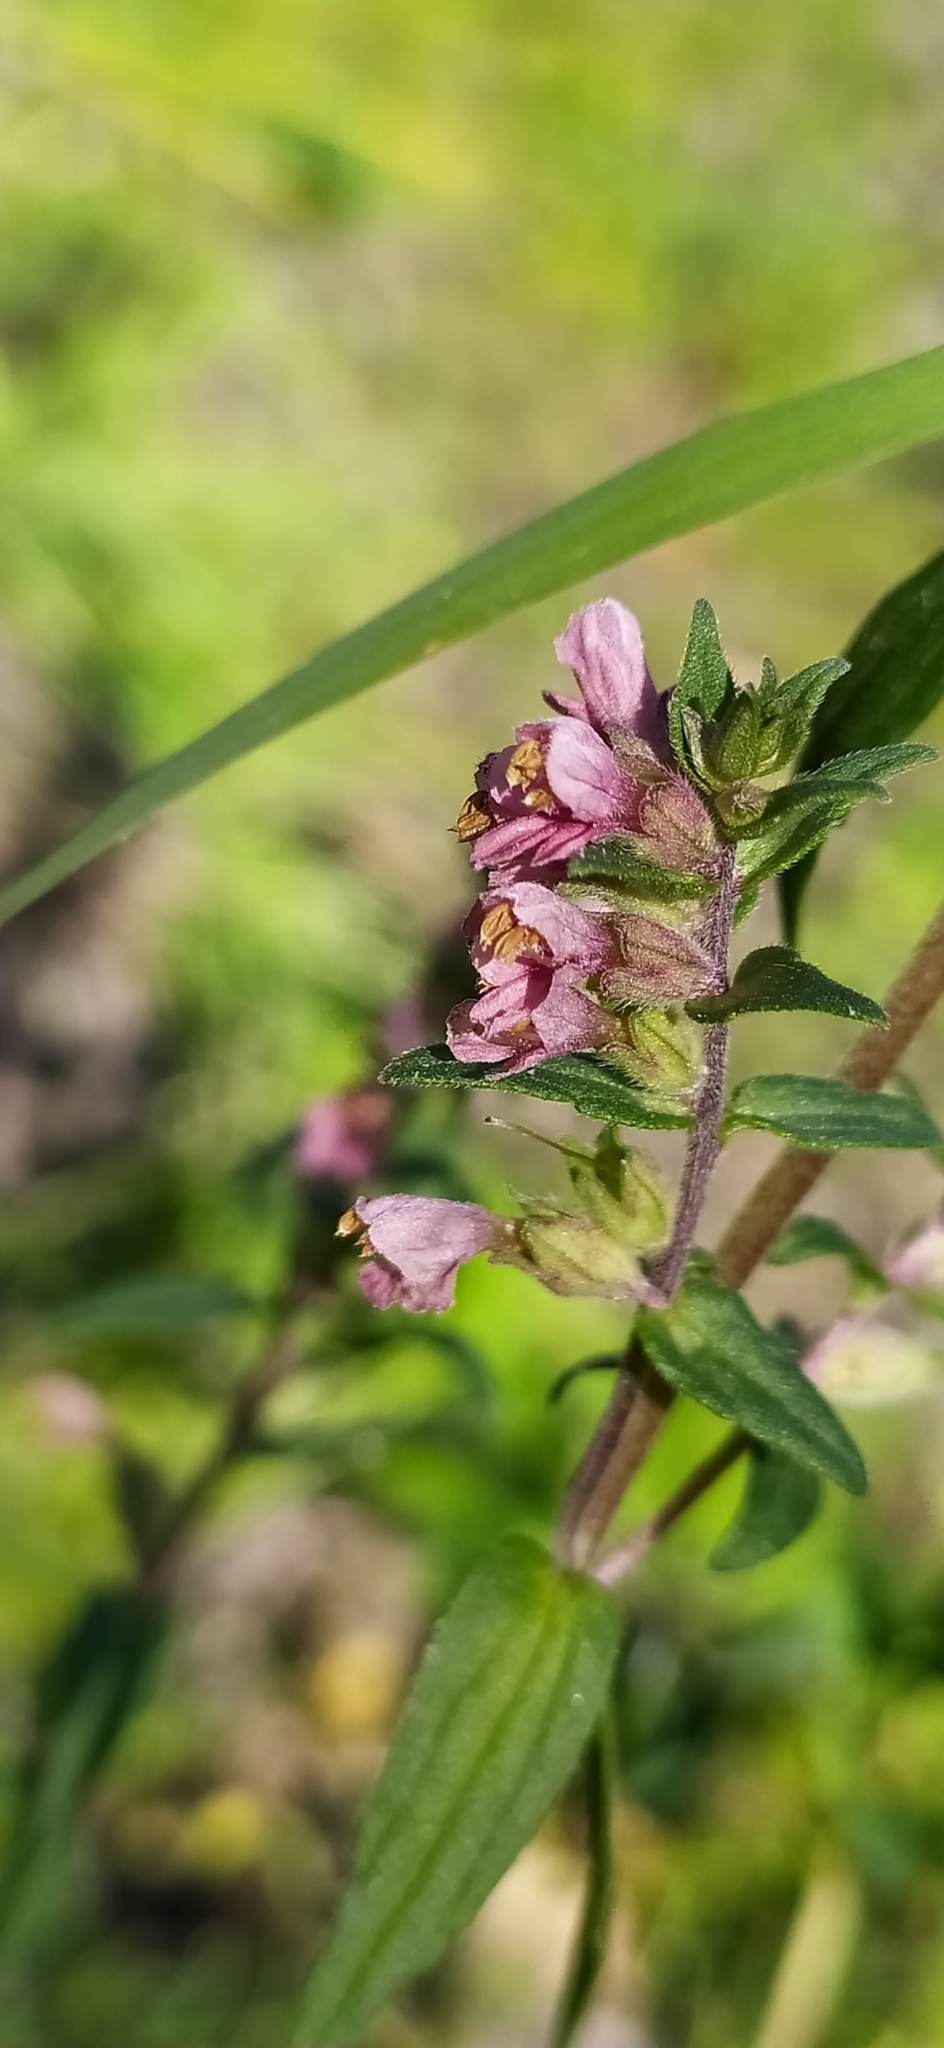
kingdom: Plantae
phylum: Tracheophyta
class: Magnoliopsida
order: Lamiales
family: Orobanchaceae
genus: Odontites
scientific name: Odontites vulgaris
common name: Broomrape
